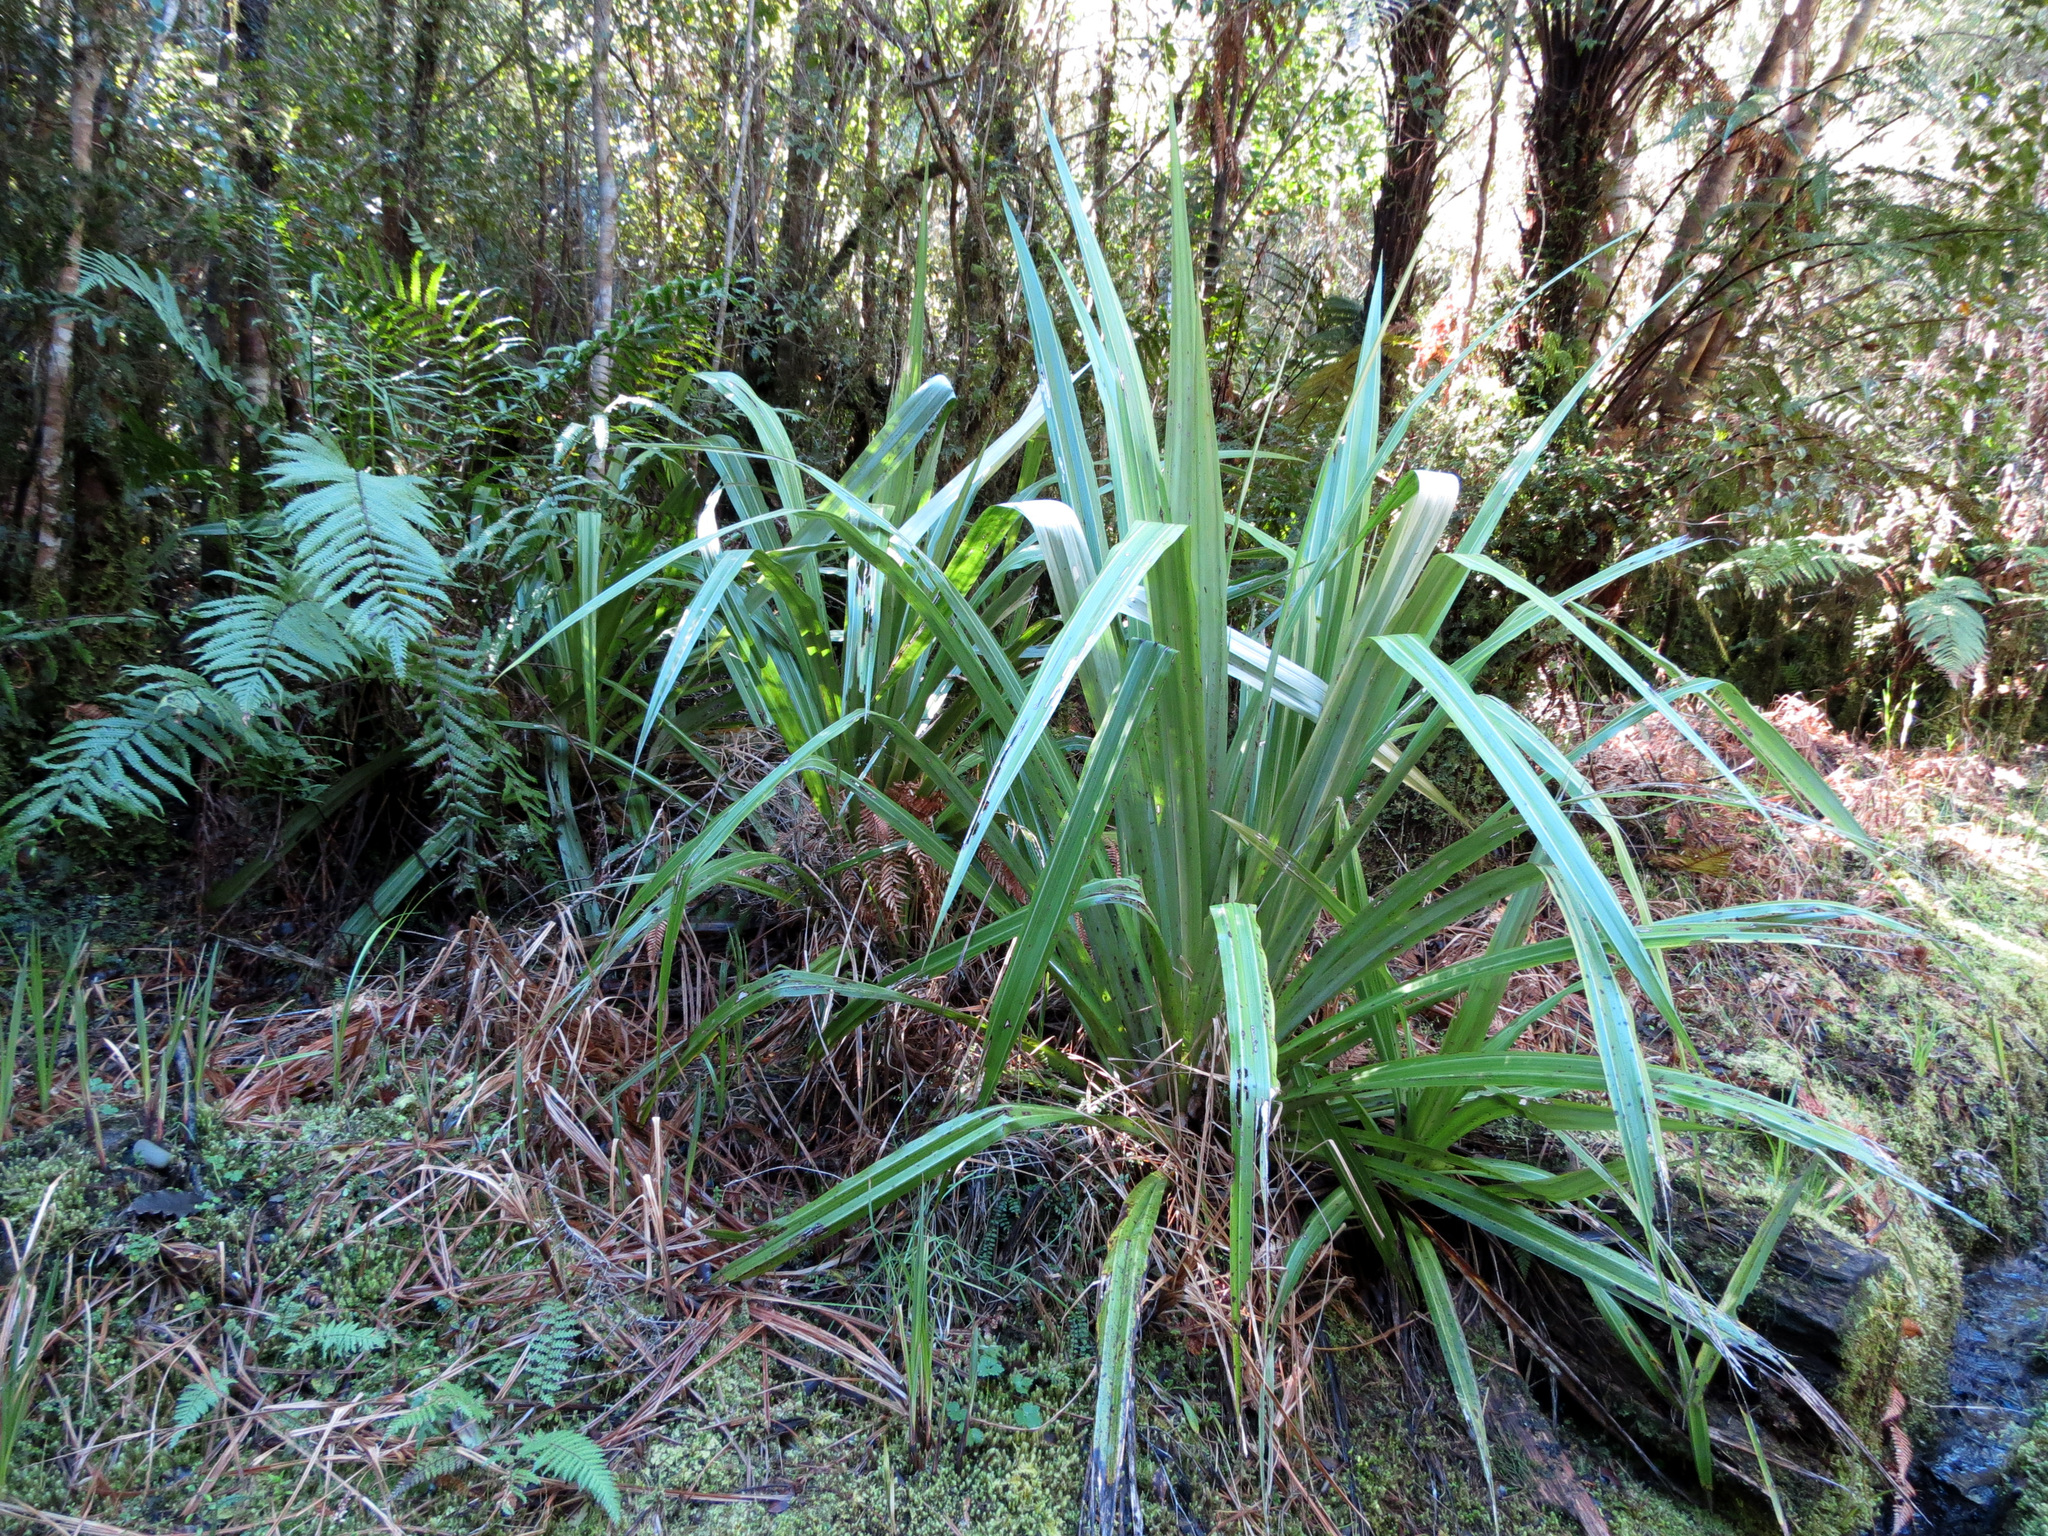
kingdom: Plantae
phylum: Tracheophyta
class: Liliopsida
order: Asparagales
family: Asteliaceae
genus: Astelia
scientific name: Astelia fragrans
